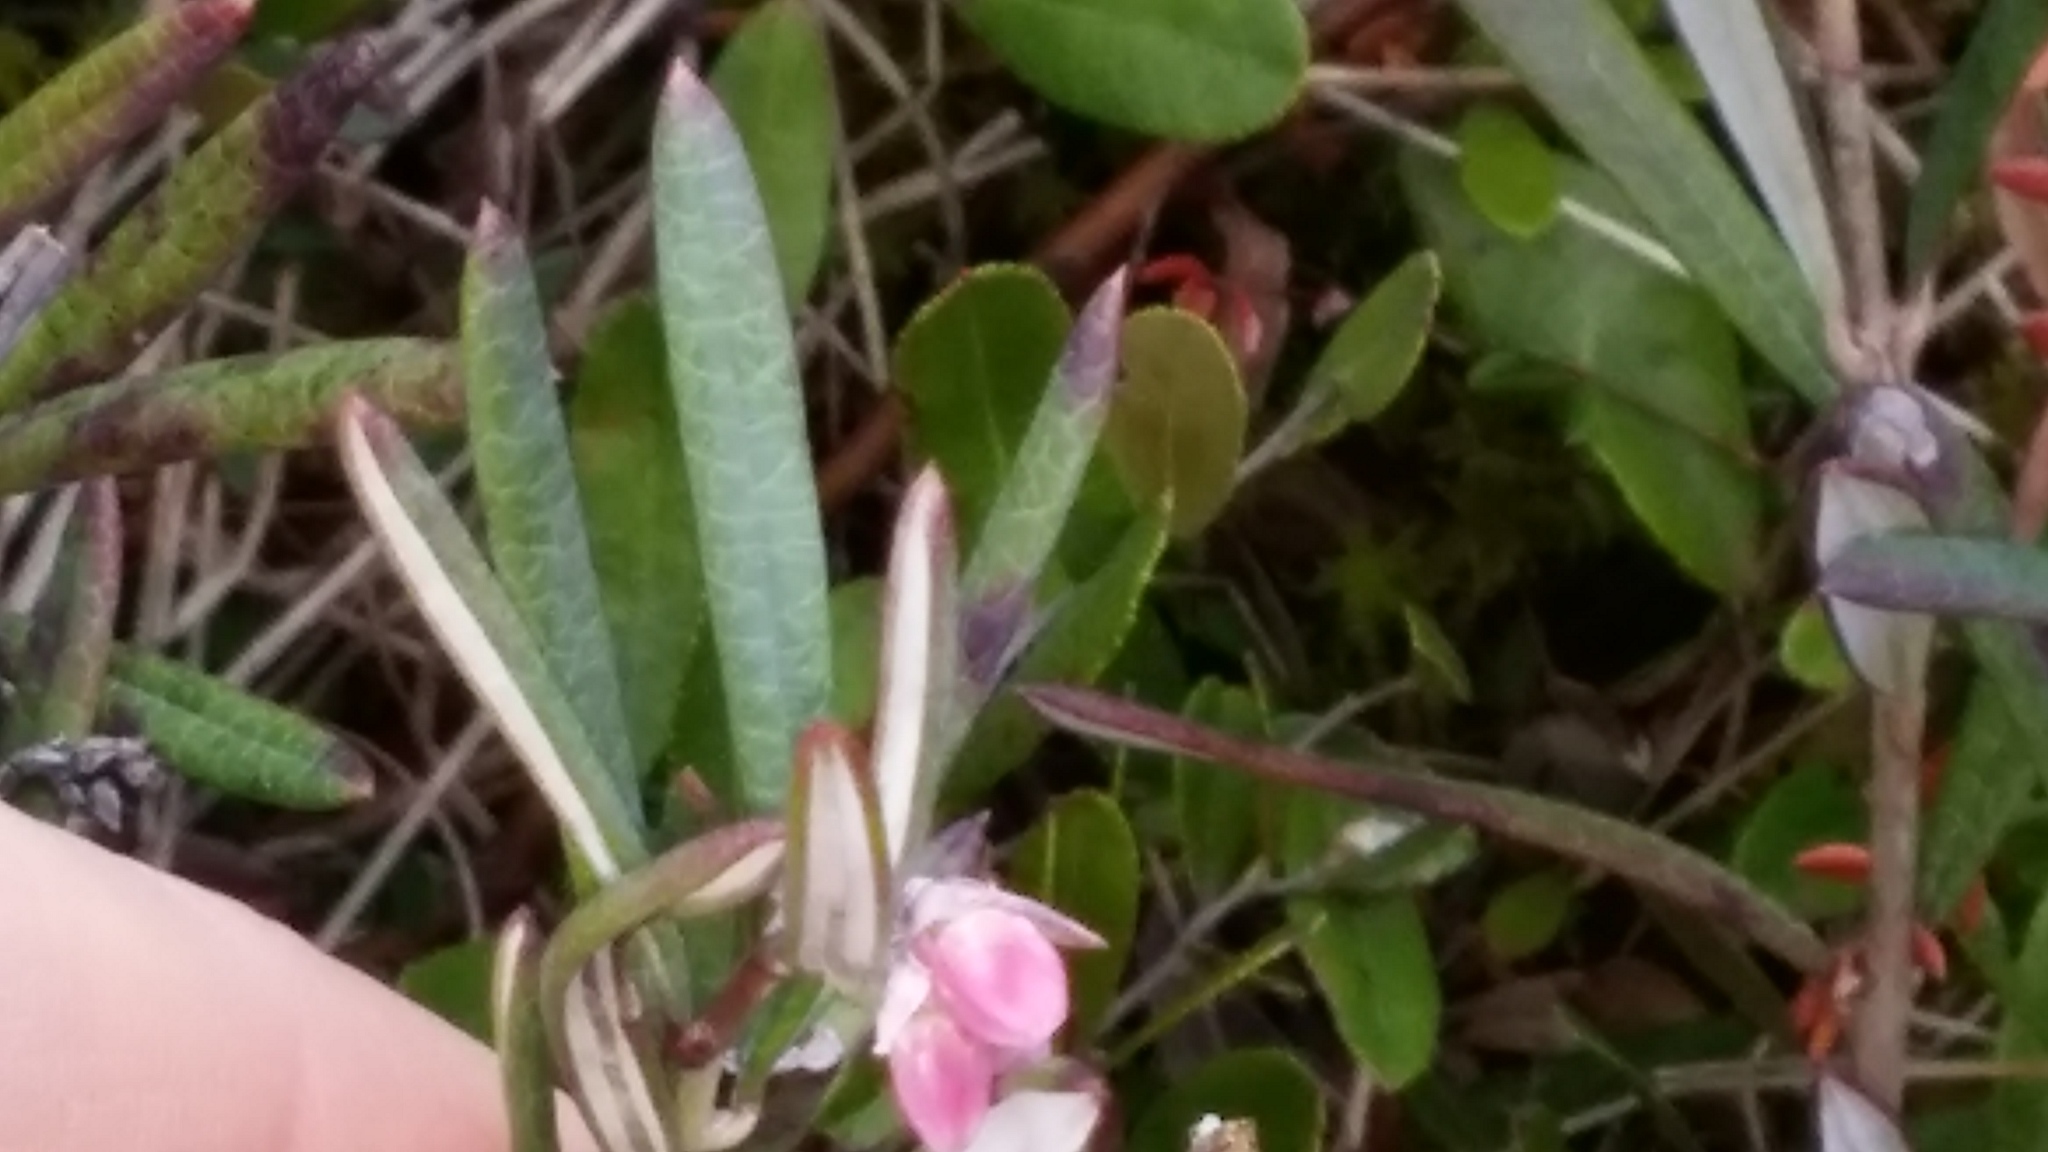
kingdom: Plantae
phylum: Tracheophyta
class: Magnoliopsida
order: Ericales
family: Ericaceae
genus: Andromeda
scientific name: Andromeda polifolia
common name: Bog-rosemary
